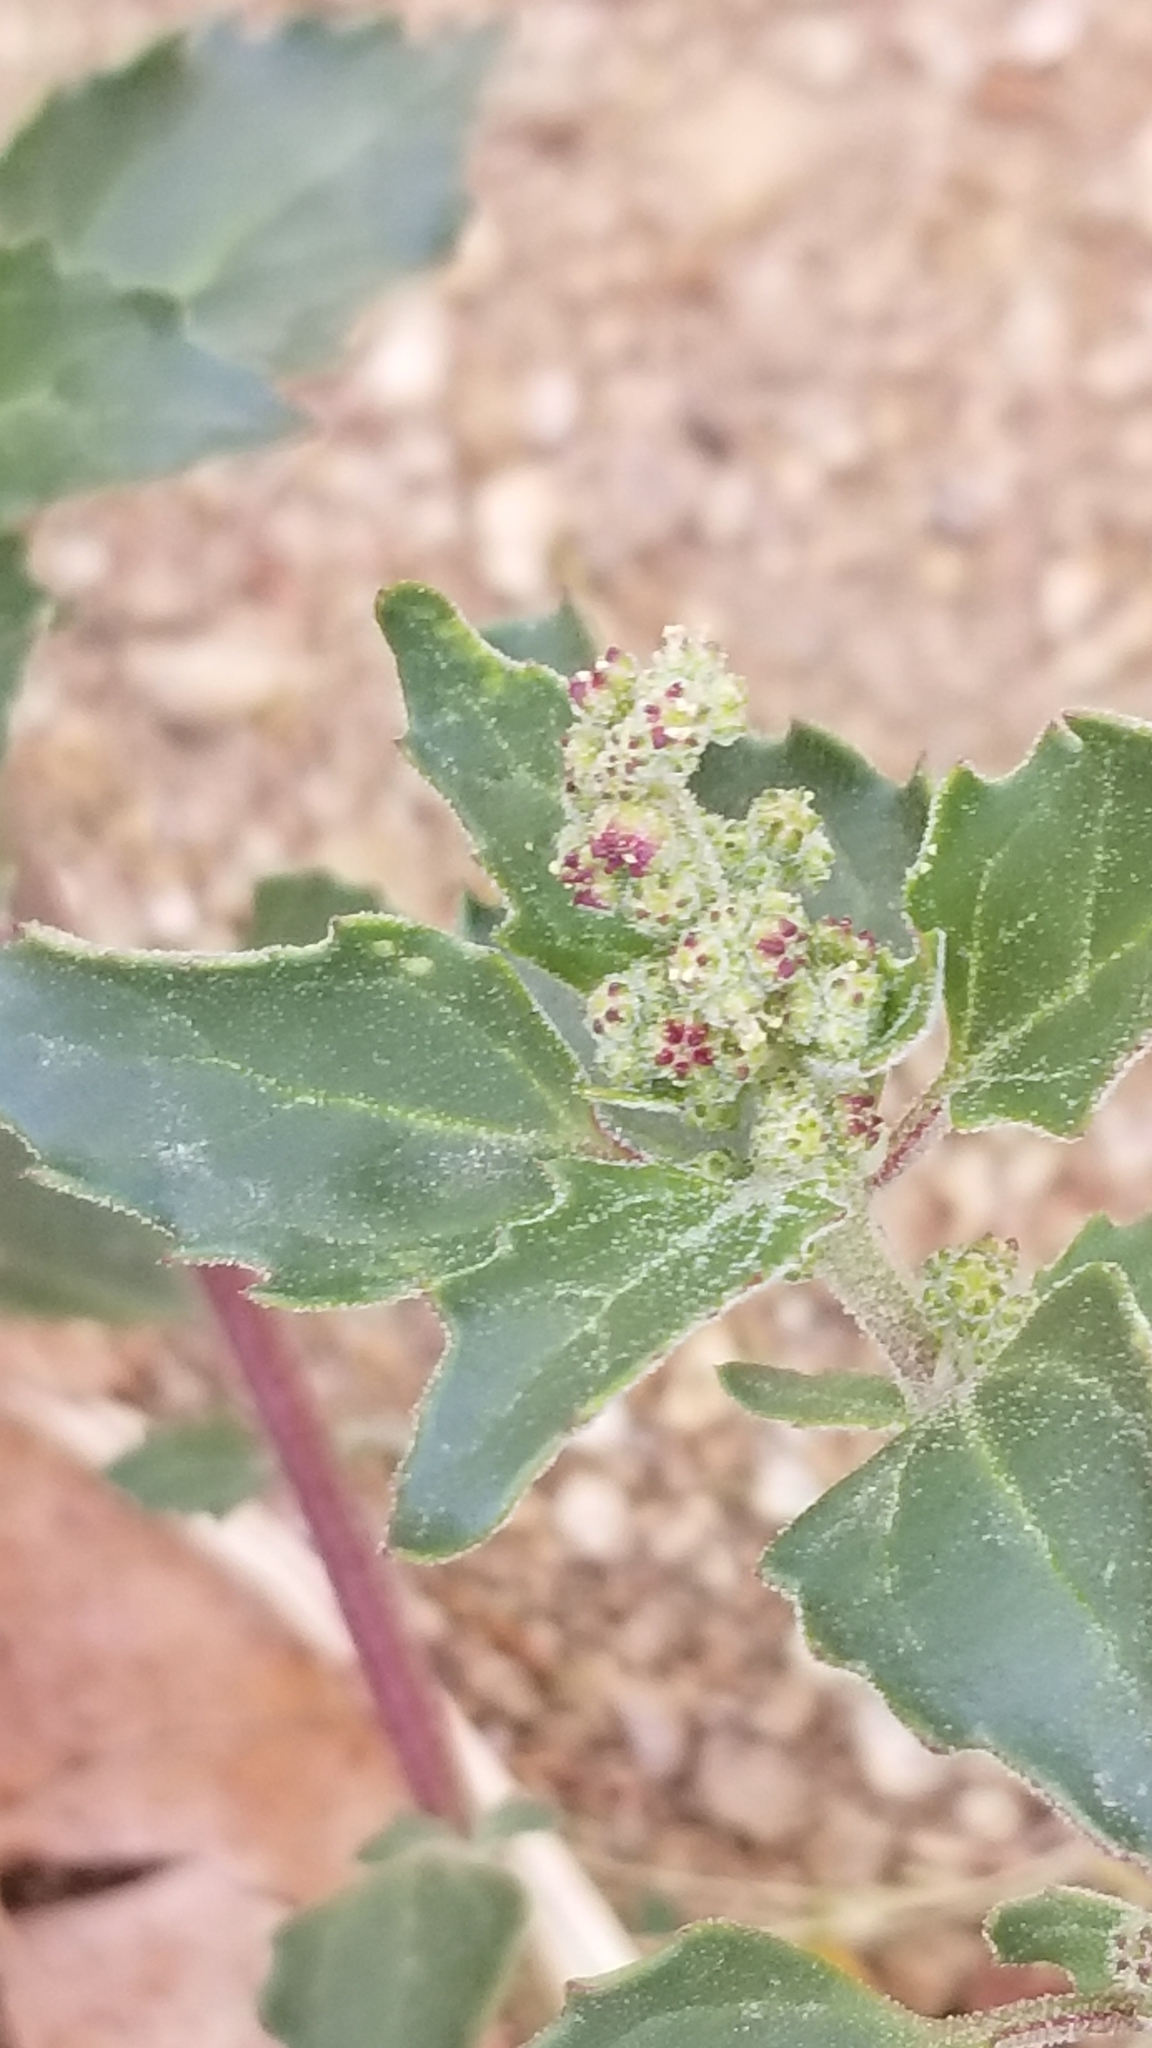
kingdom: Plantae
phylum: Tracheophyta
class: Magnoliopsida
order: Caryophyllales
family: Amaranthaceae
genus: Chenopodiastrum
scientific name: Chenopodiastrum murale
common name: Sowbane
